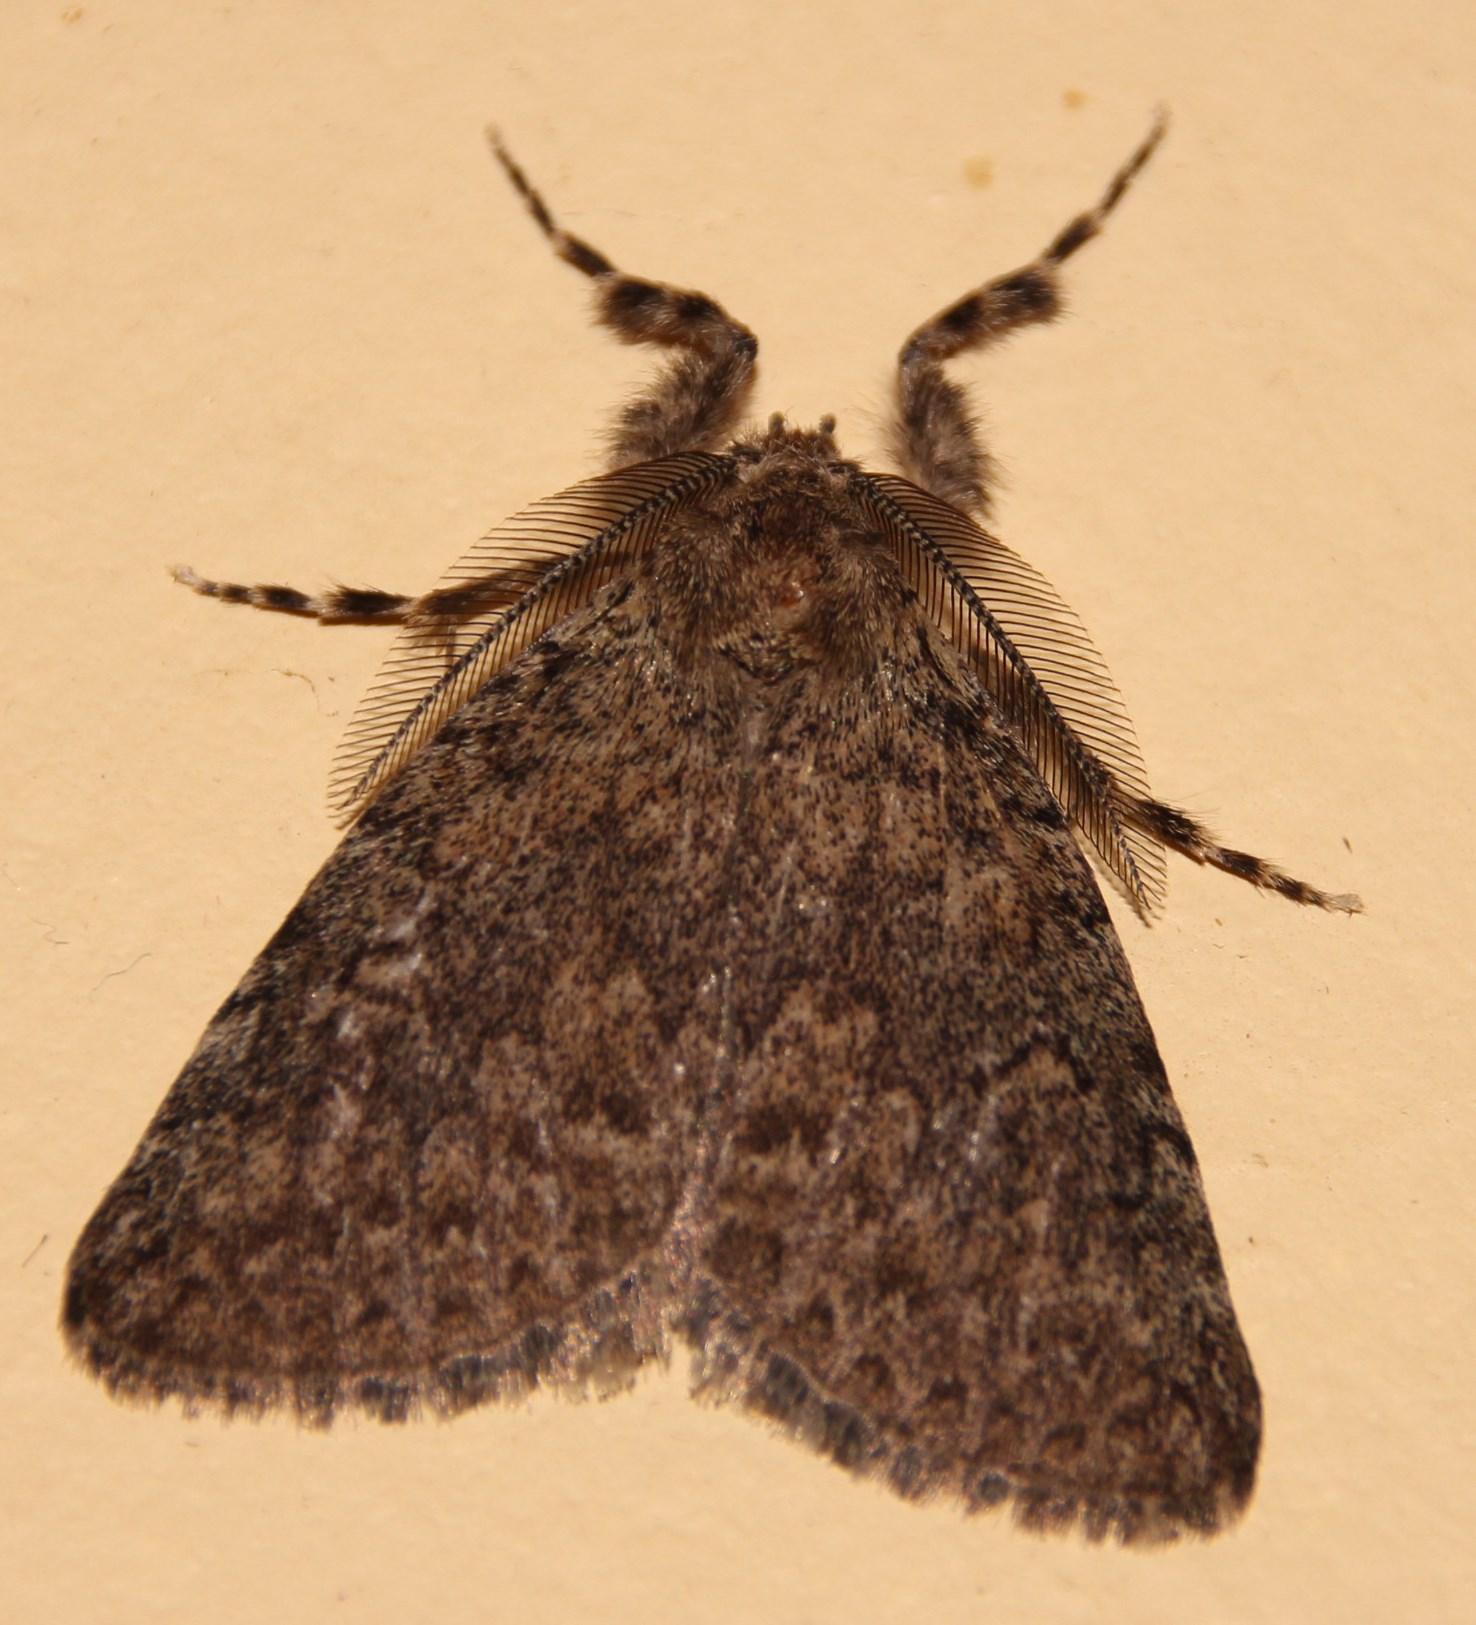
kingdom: Animalia
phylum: Arthropoda
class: Insecta
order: Lepidoptera
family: Erebidae
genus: Laelia
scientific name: Laelia fusca
